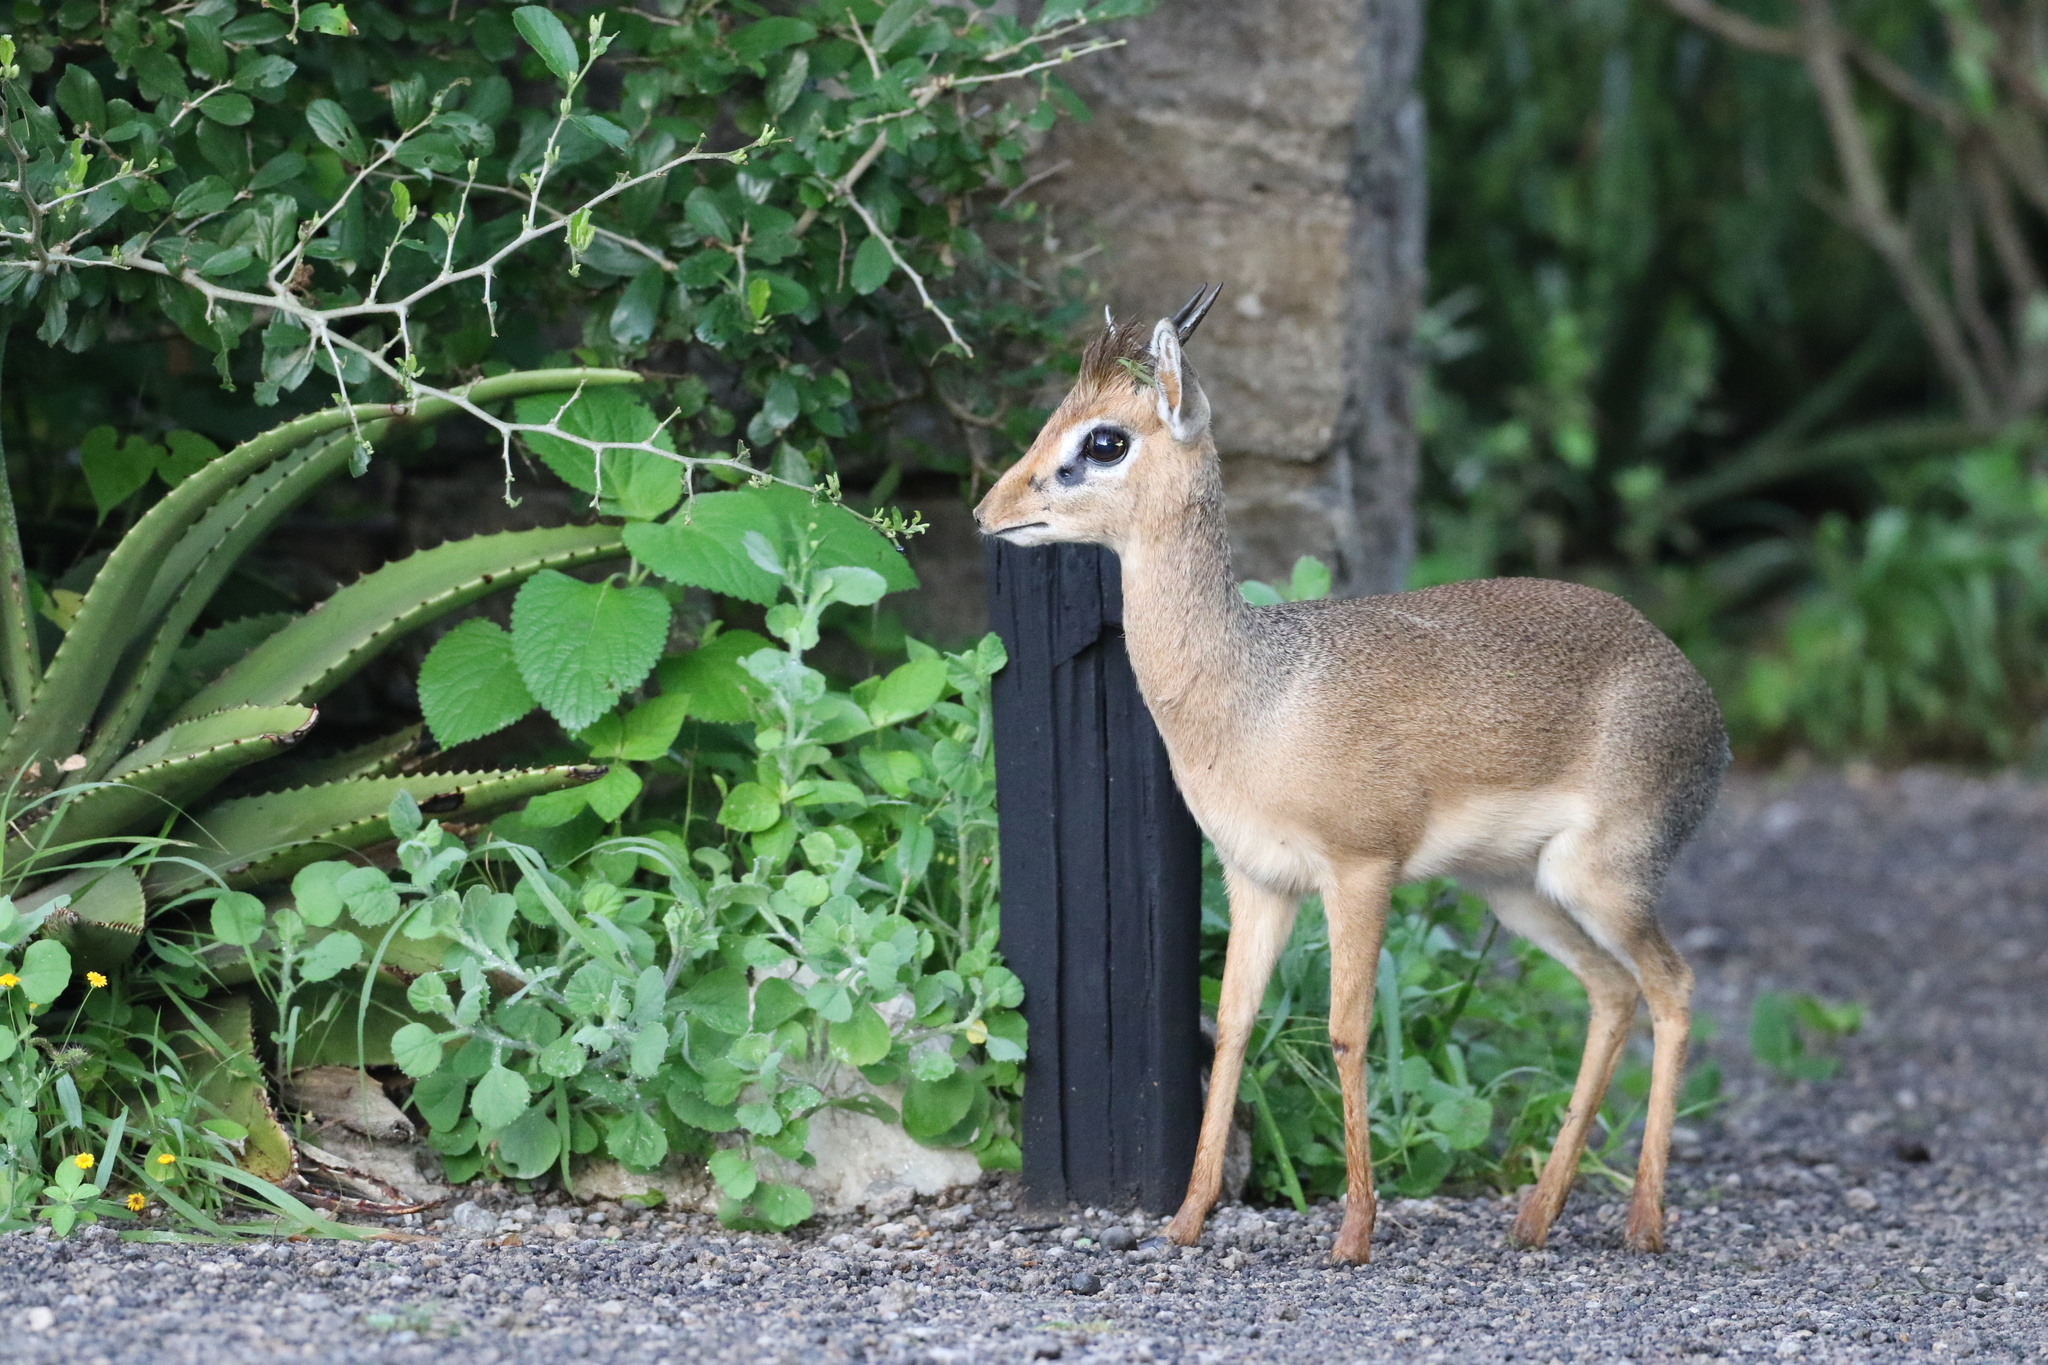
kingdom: Animalia
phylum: Chordata
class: Mammalia
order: Artiodactyla
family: Bovidae
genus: Madoqua
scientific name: Madoqua
